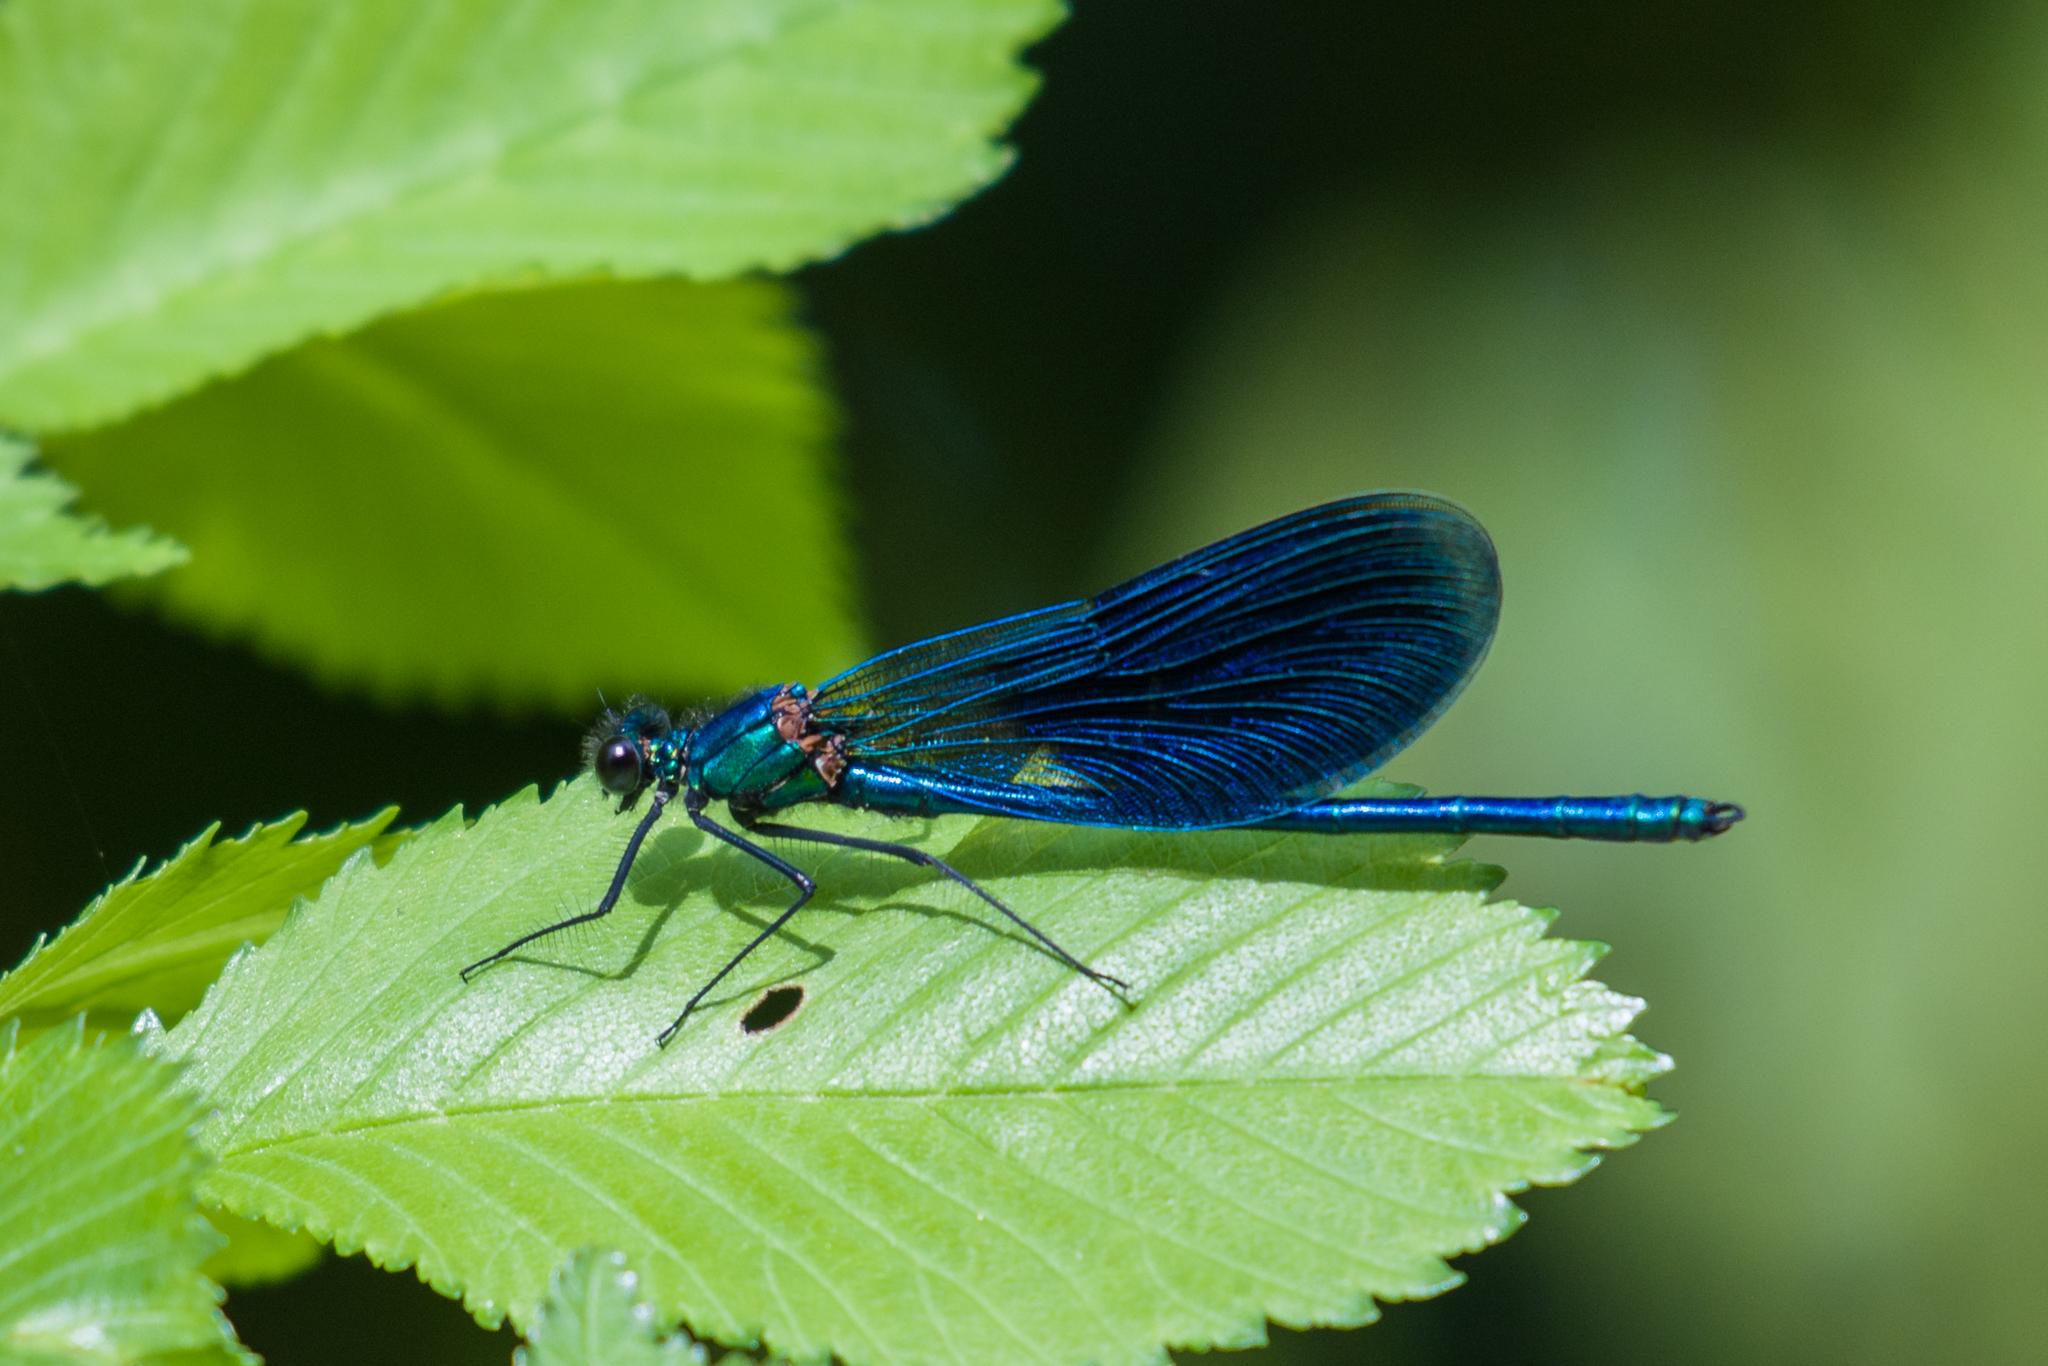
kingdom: Animalia
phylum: Arthropoda
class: Insecta
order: Odonata
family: Calopterygidae
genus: Calopteryx
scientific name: Calopteryx splendens
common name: Banded demoiselle
